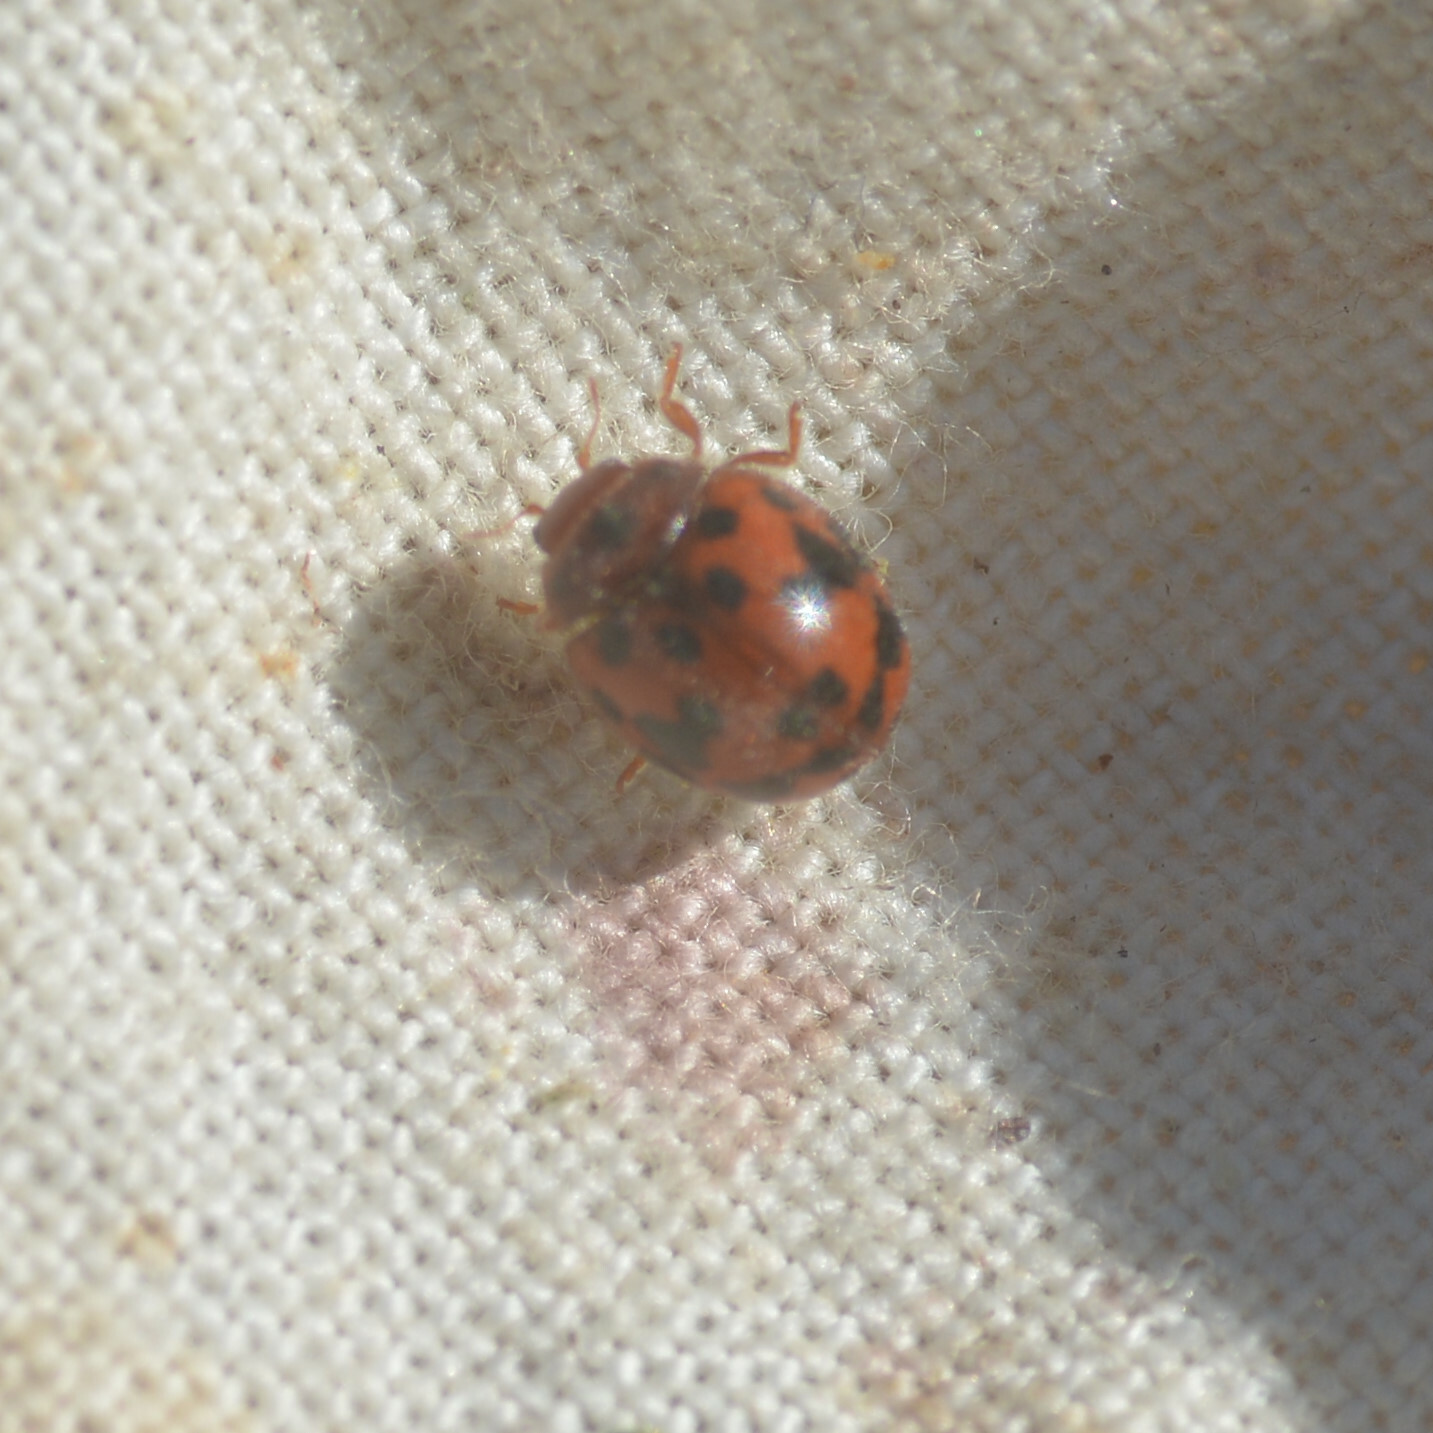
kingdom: Animalia
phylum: Arthropoda
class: Insecta
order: Coleoptera
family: Coccinellidae
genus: Subcoccinella
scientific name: Subcoccinella vigintiquatuorpunctata
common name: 24-spot ladybird
